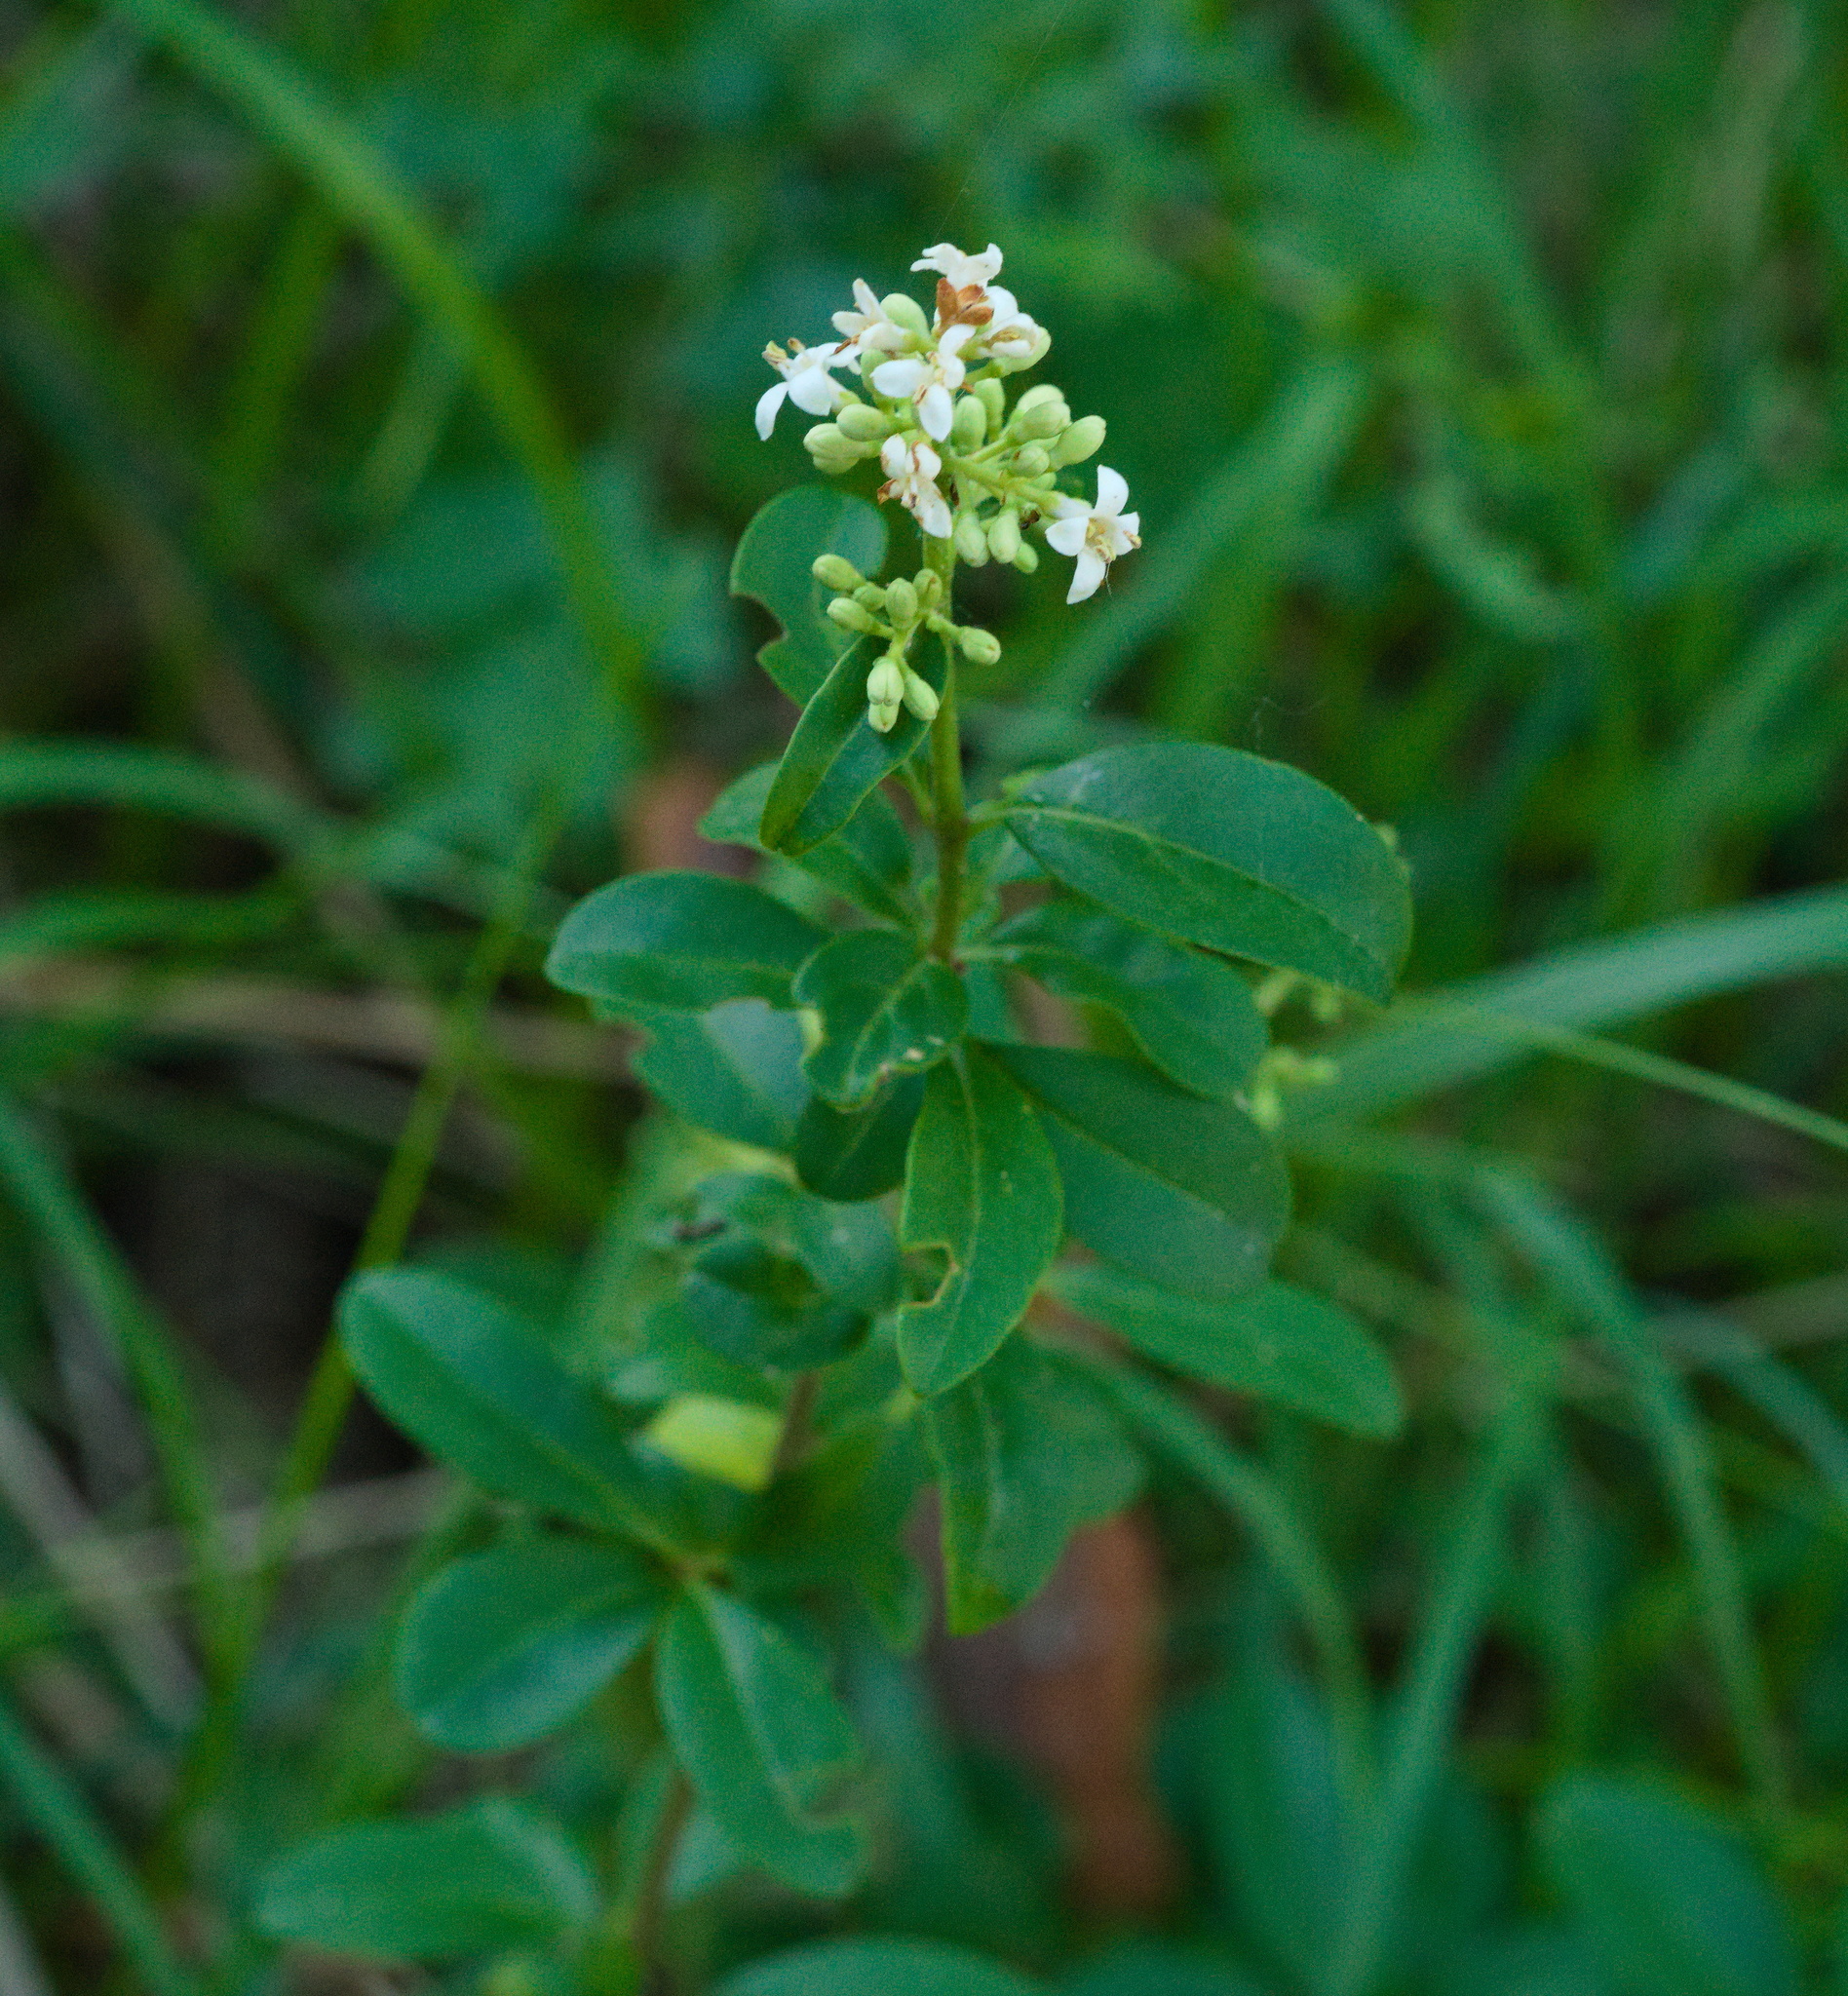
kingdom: Plantae
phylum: Tracheophyta
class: Magnoliopsida
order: Lamiales
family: Oleaceae
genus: Ligustrum
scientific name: Ligustrum vulgare
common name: Wild privet
